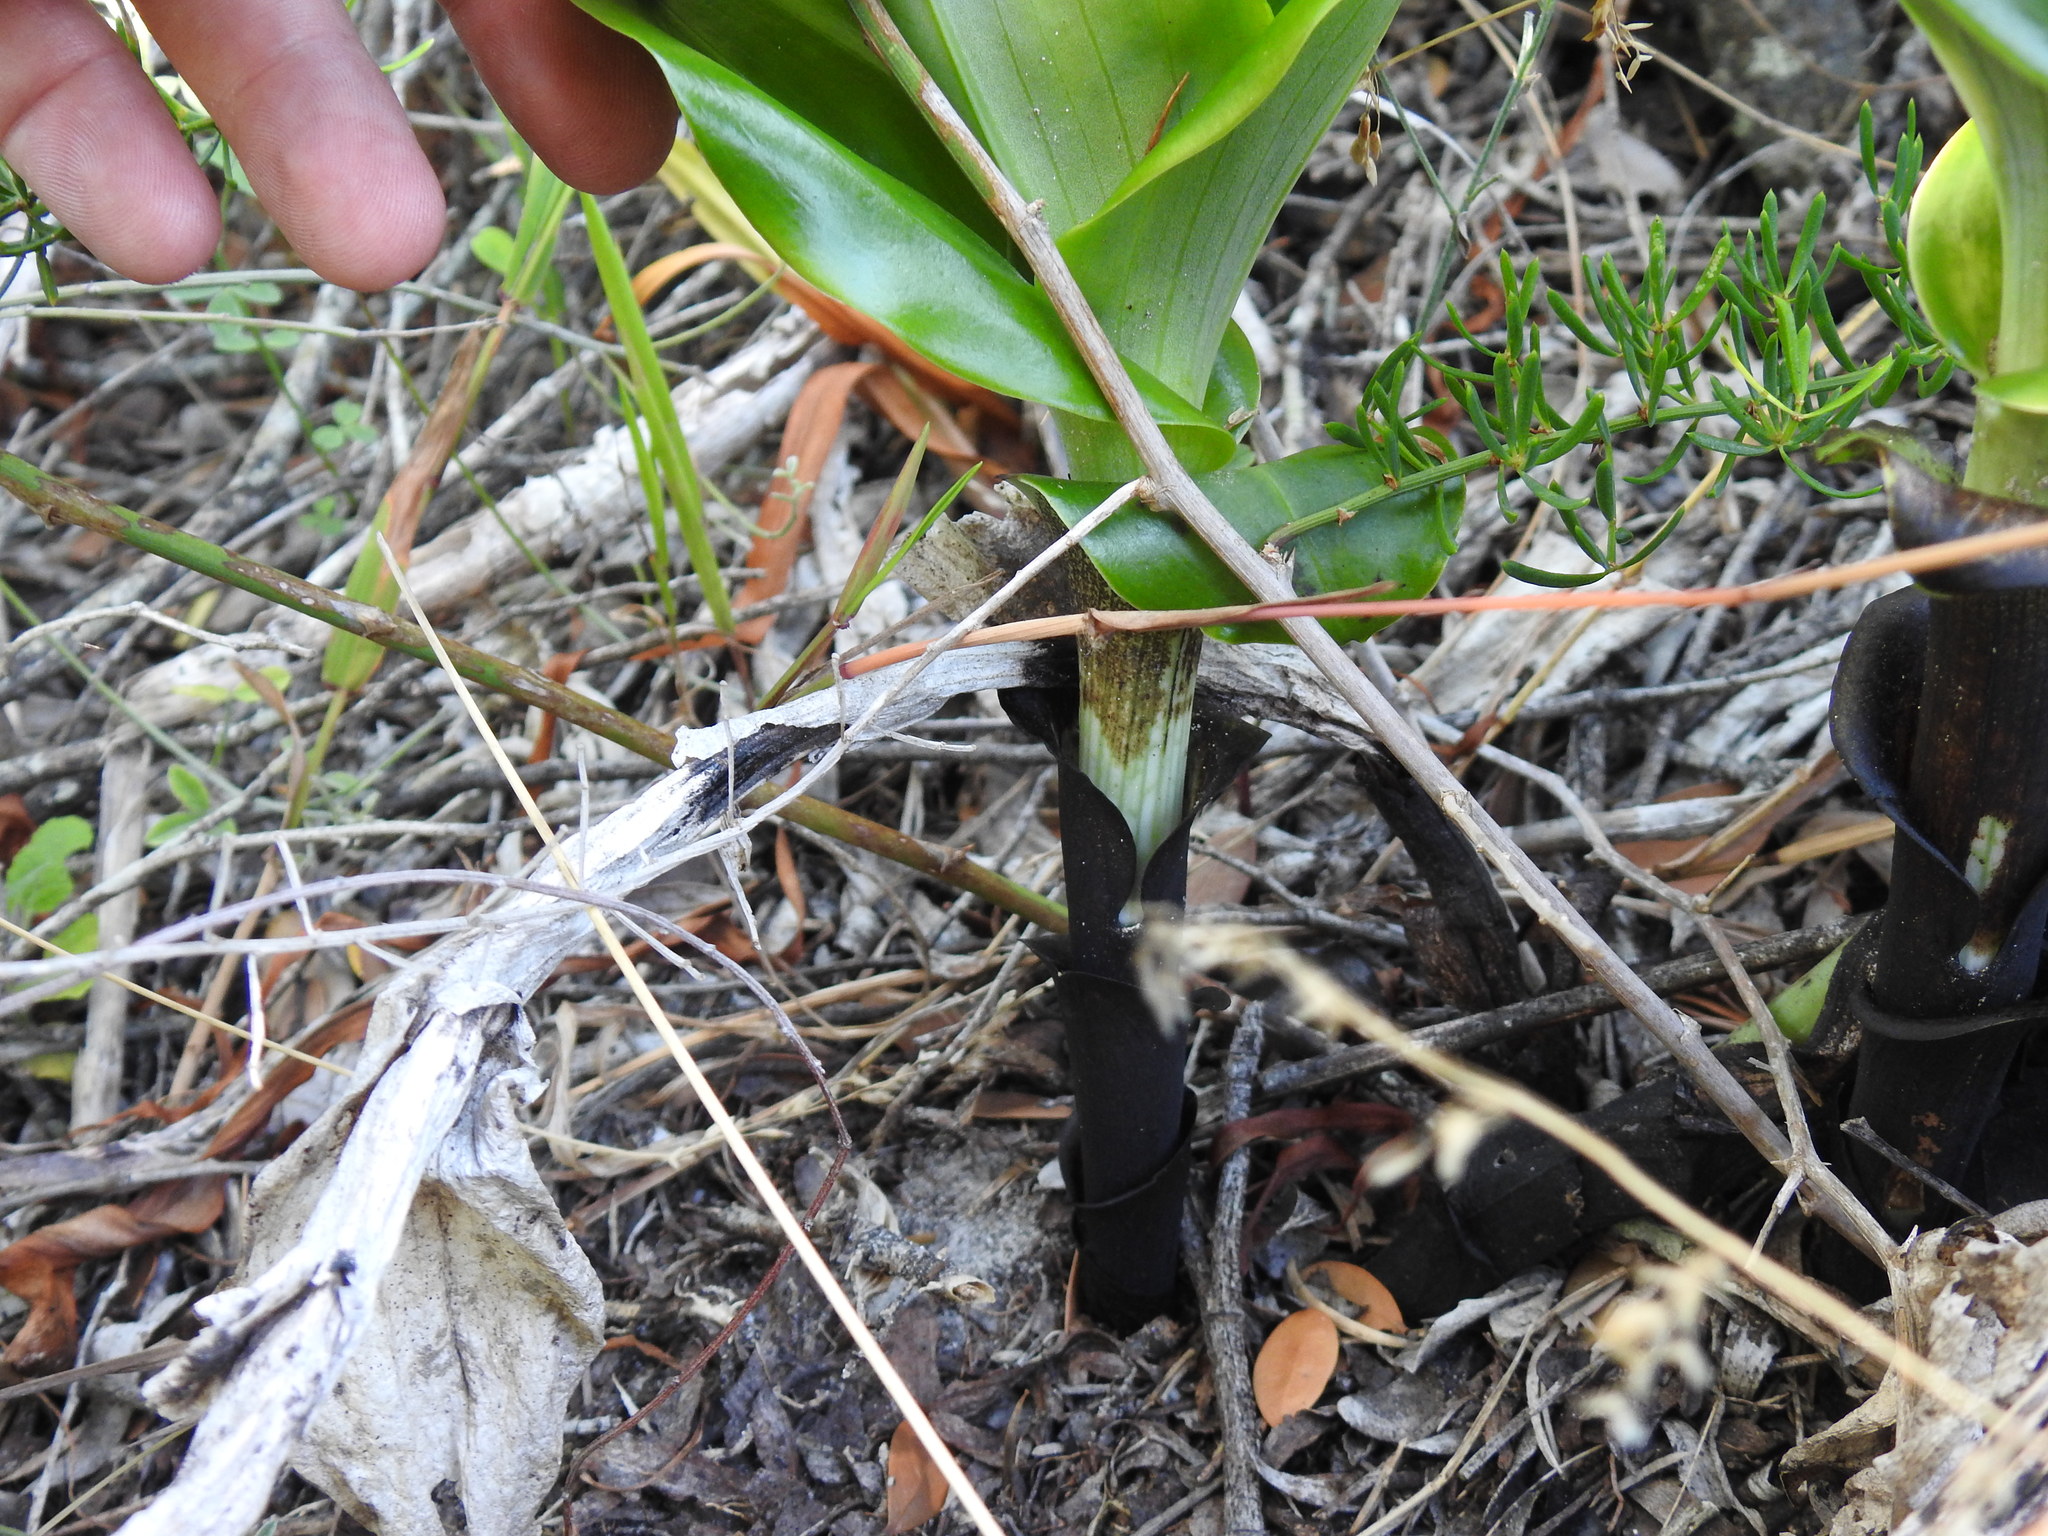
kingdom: Plantae
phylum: Tracheophyta
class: Liliopsida
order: Asparagales
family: Orchidaceae
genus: Bonatea
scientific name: Bonatea speciosa
